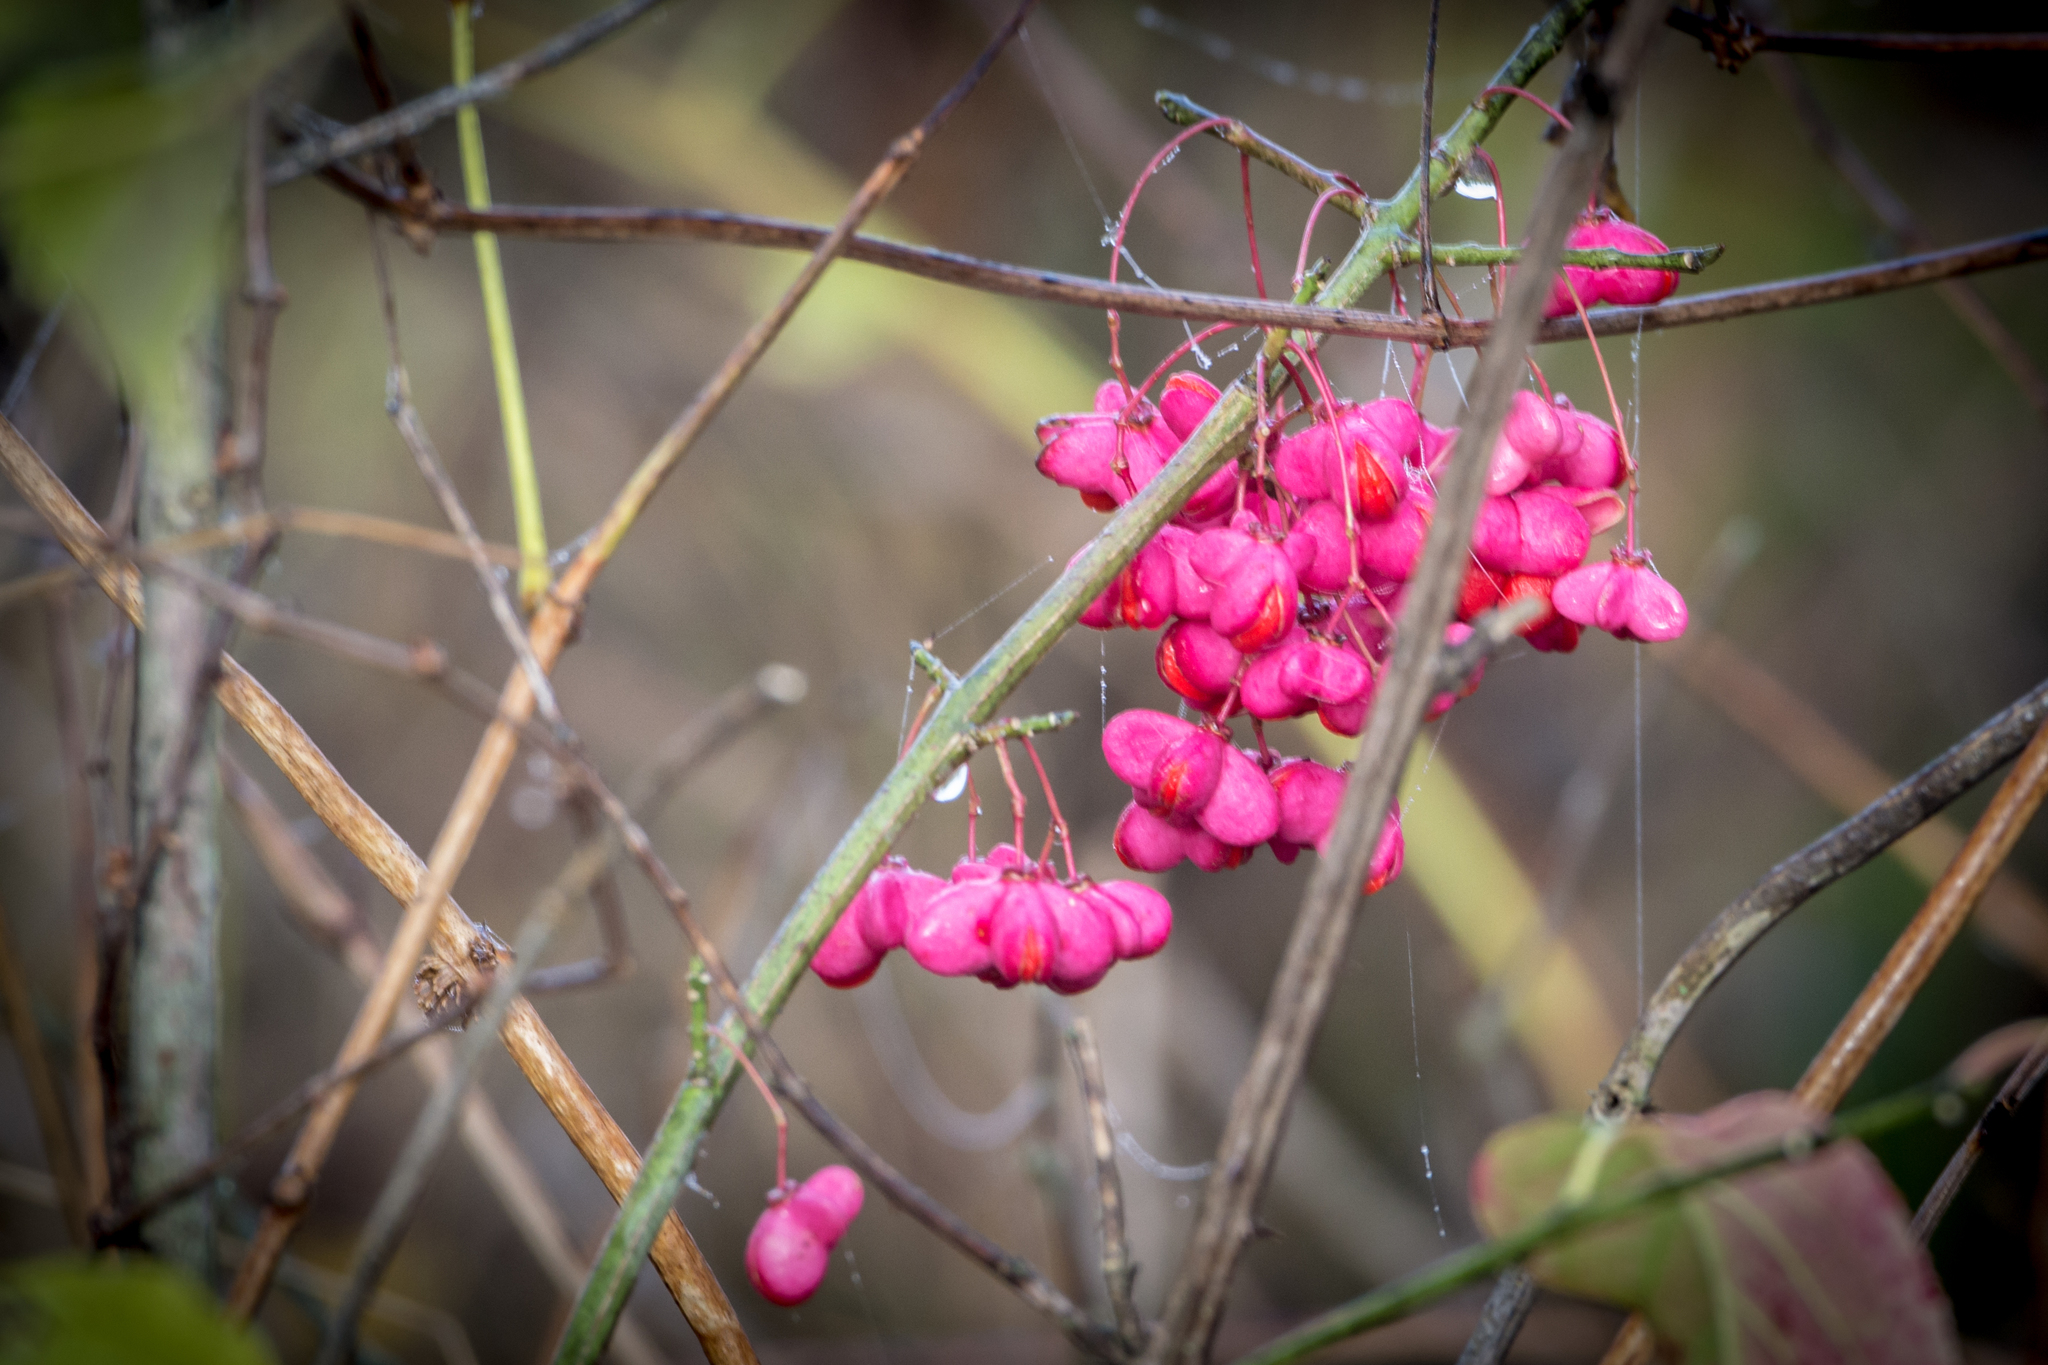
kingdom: Plantae
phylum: Tracheophyta
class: Magnoliopsida
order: Celastrales
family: Celastraceae
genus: Euonymus
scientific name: Euonymus atropurpureus
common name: Eastern wahoo
